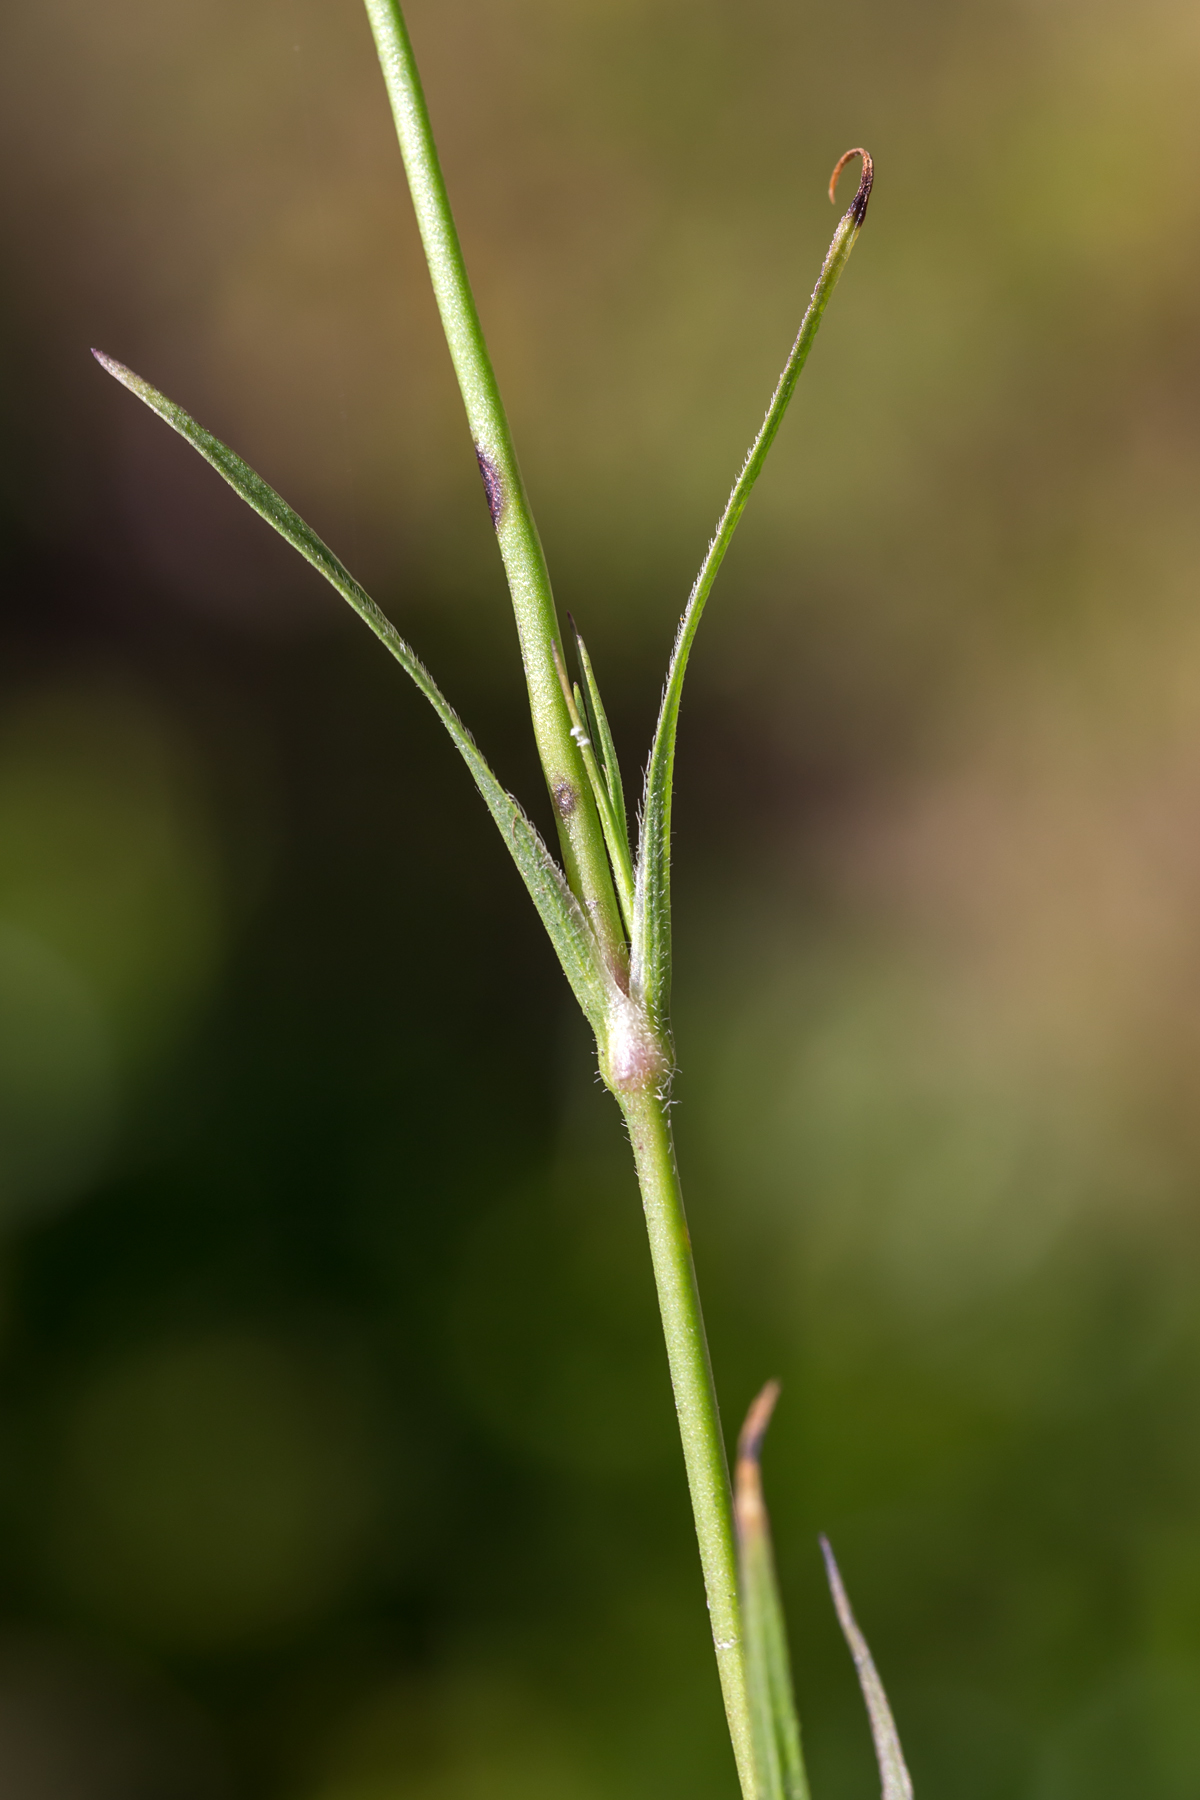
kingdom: Plantae
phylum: Tracheophyta
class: Magnoliopsida
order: Caryophyllales
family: Caryophyllaceae
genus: Dianthus
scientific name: Dianthus armeria
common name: Deptford pink
